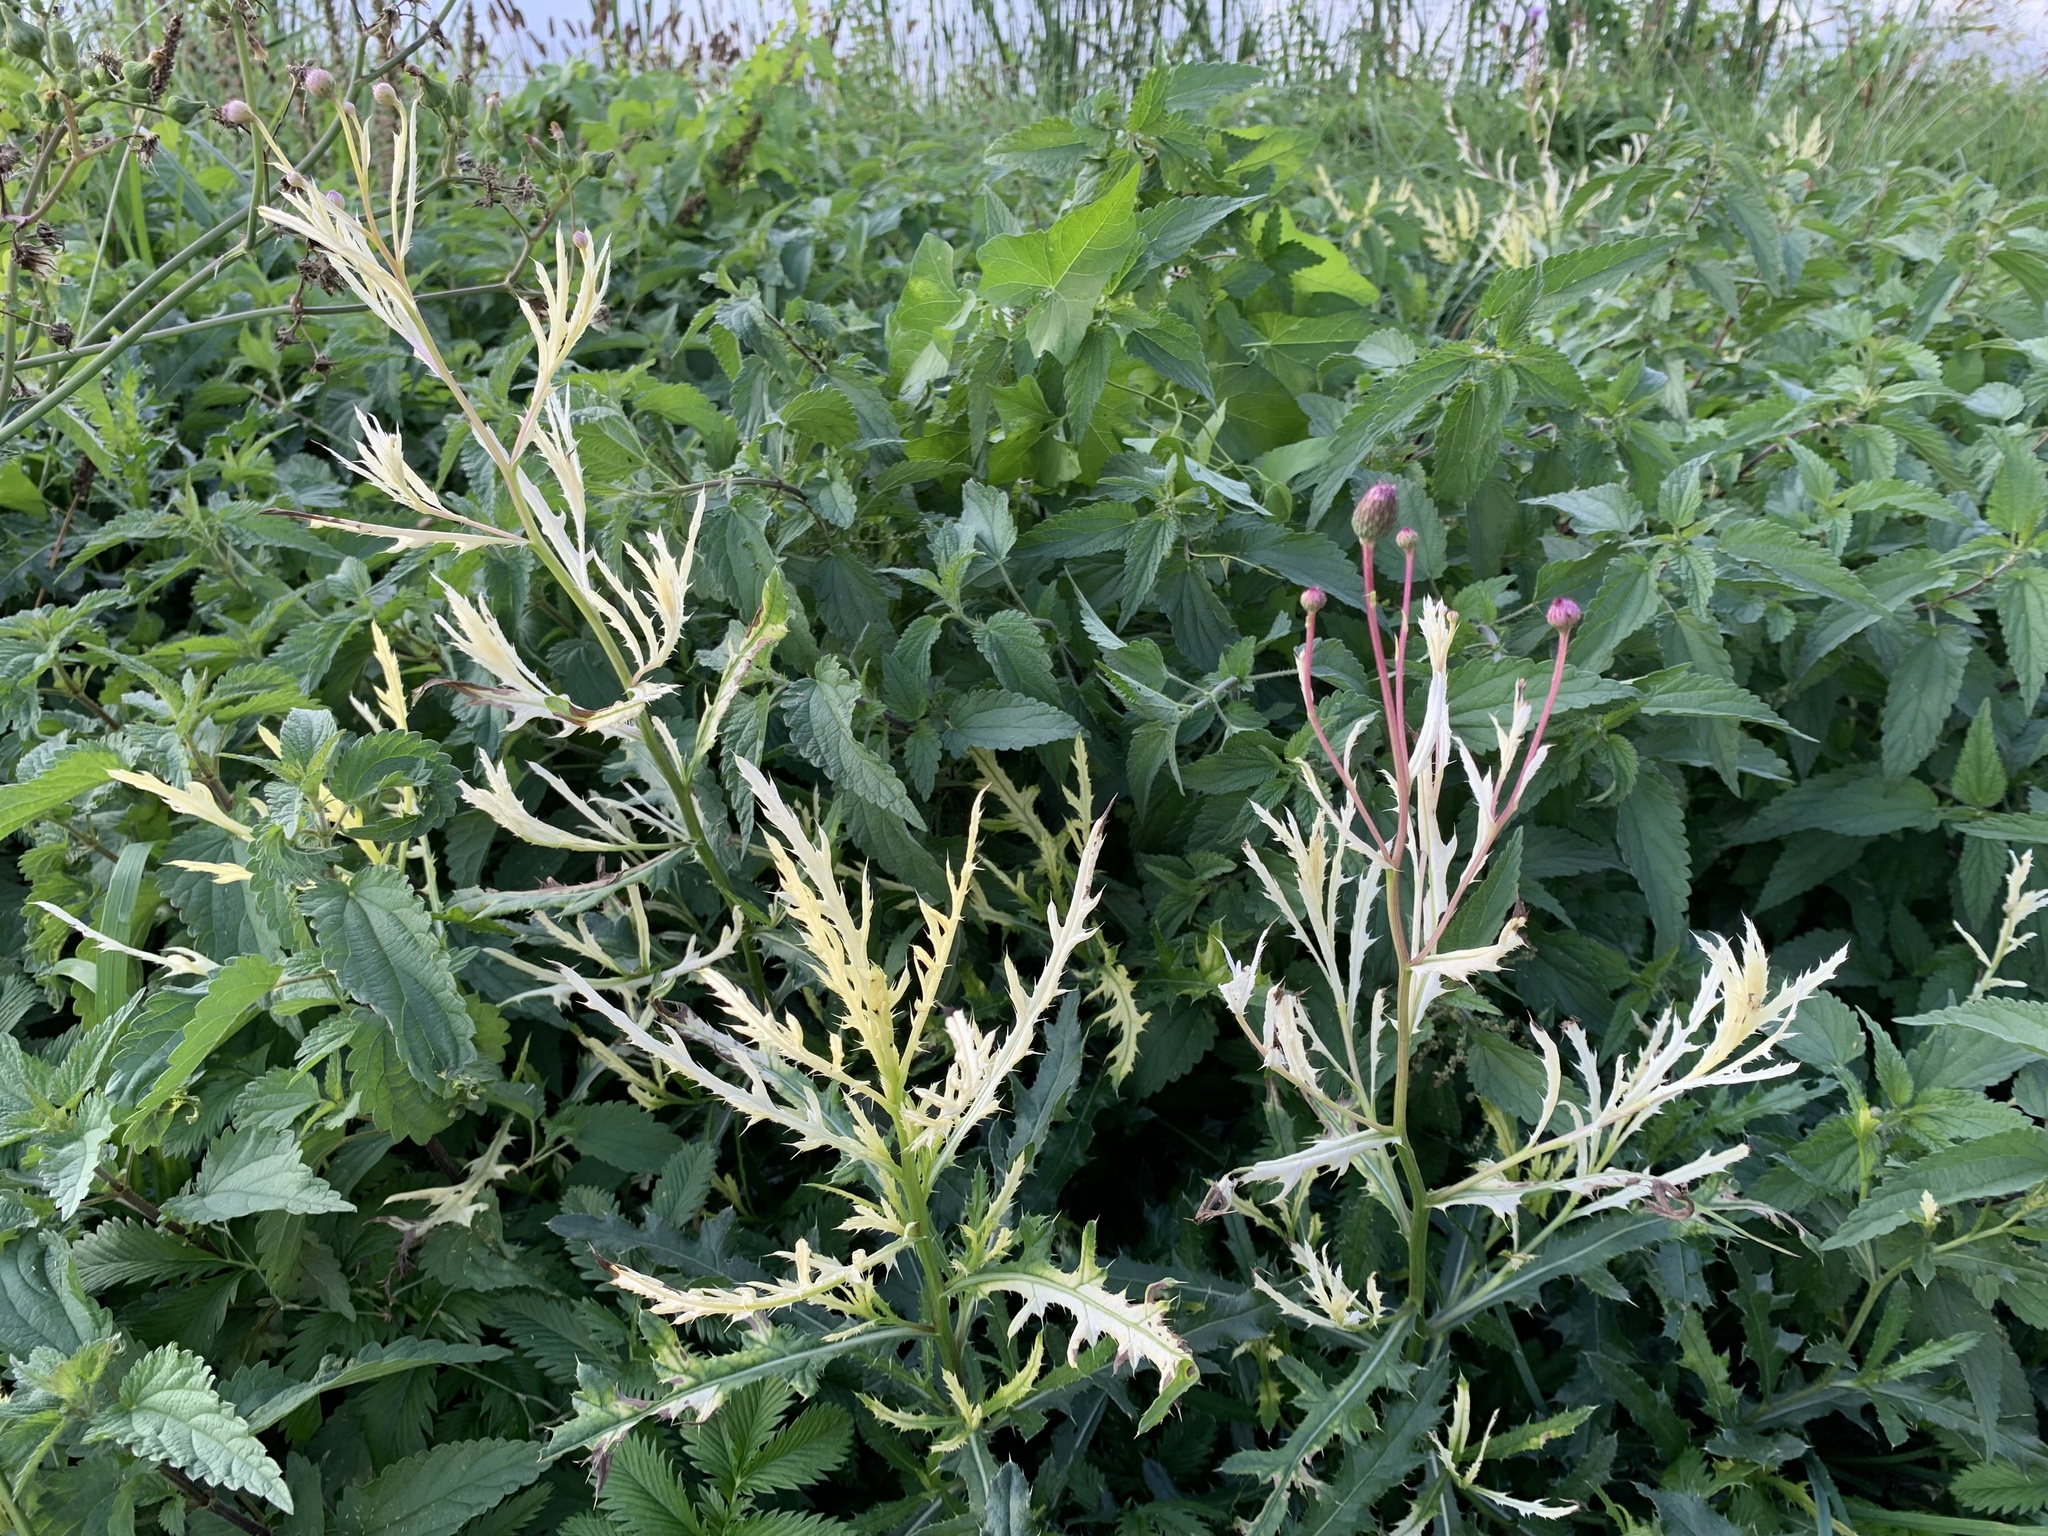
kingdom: Bacteria
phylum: Proteobacteria
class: Gammaproteobacteria
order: Pseudomonadales
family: Pseudomonadaceae
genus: Pseudomonas
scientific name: Pseudomonas syringae
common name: Bacterial speck
